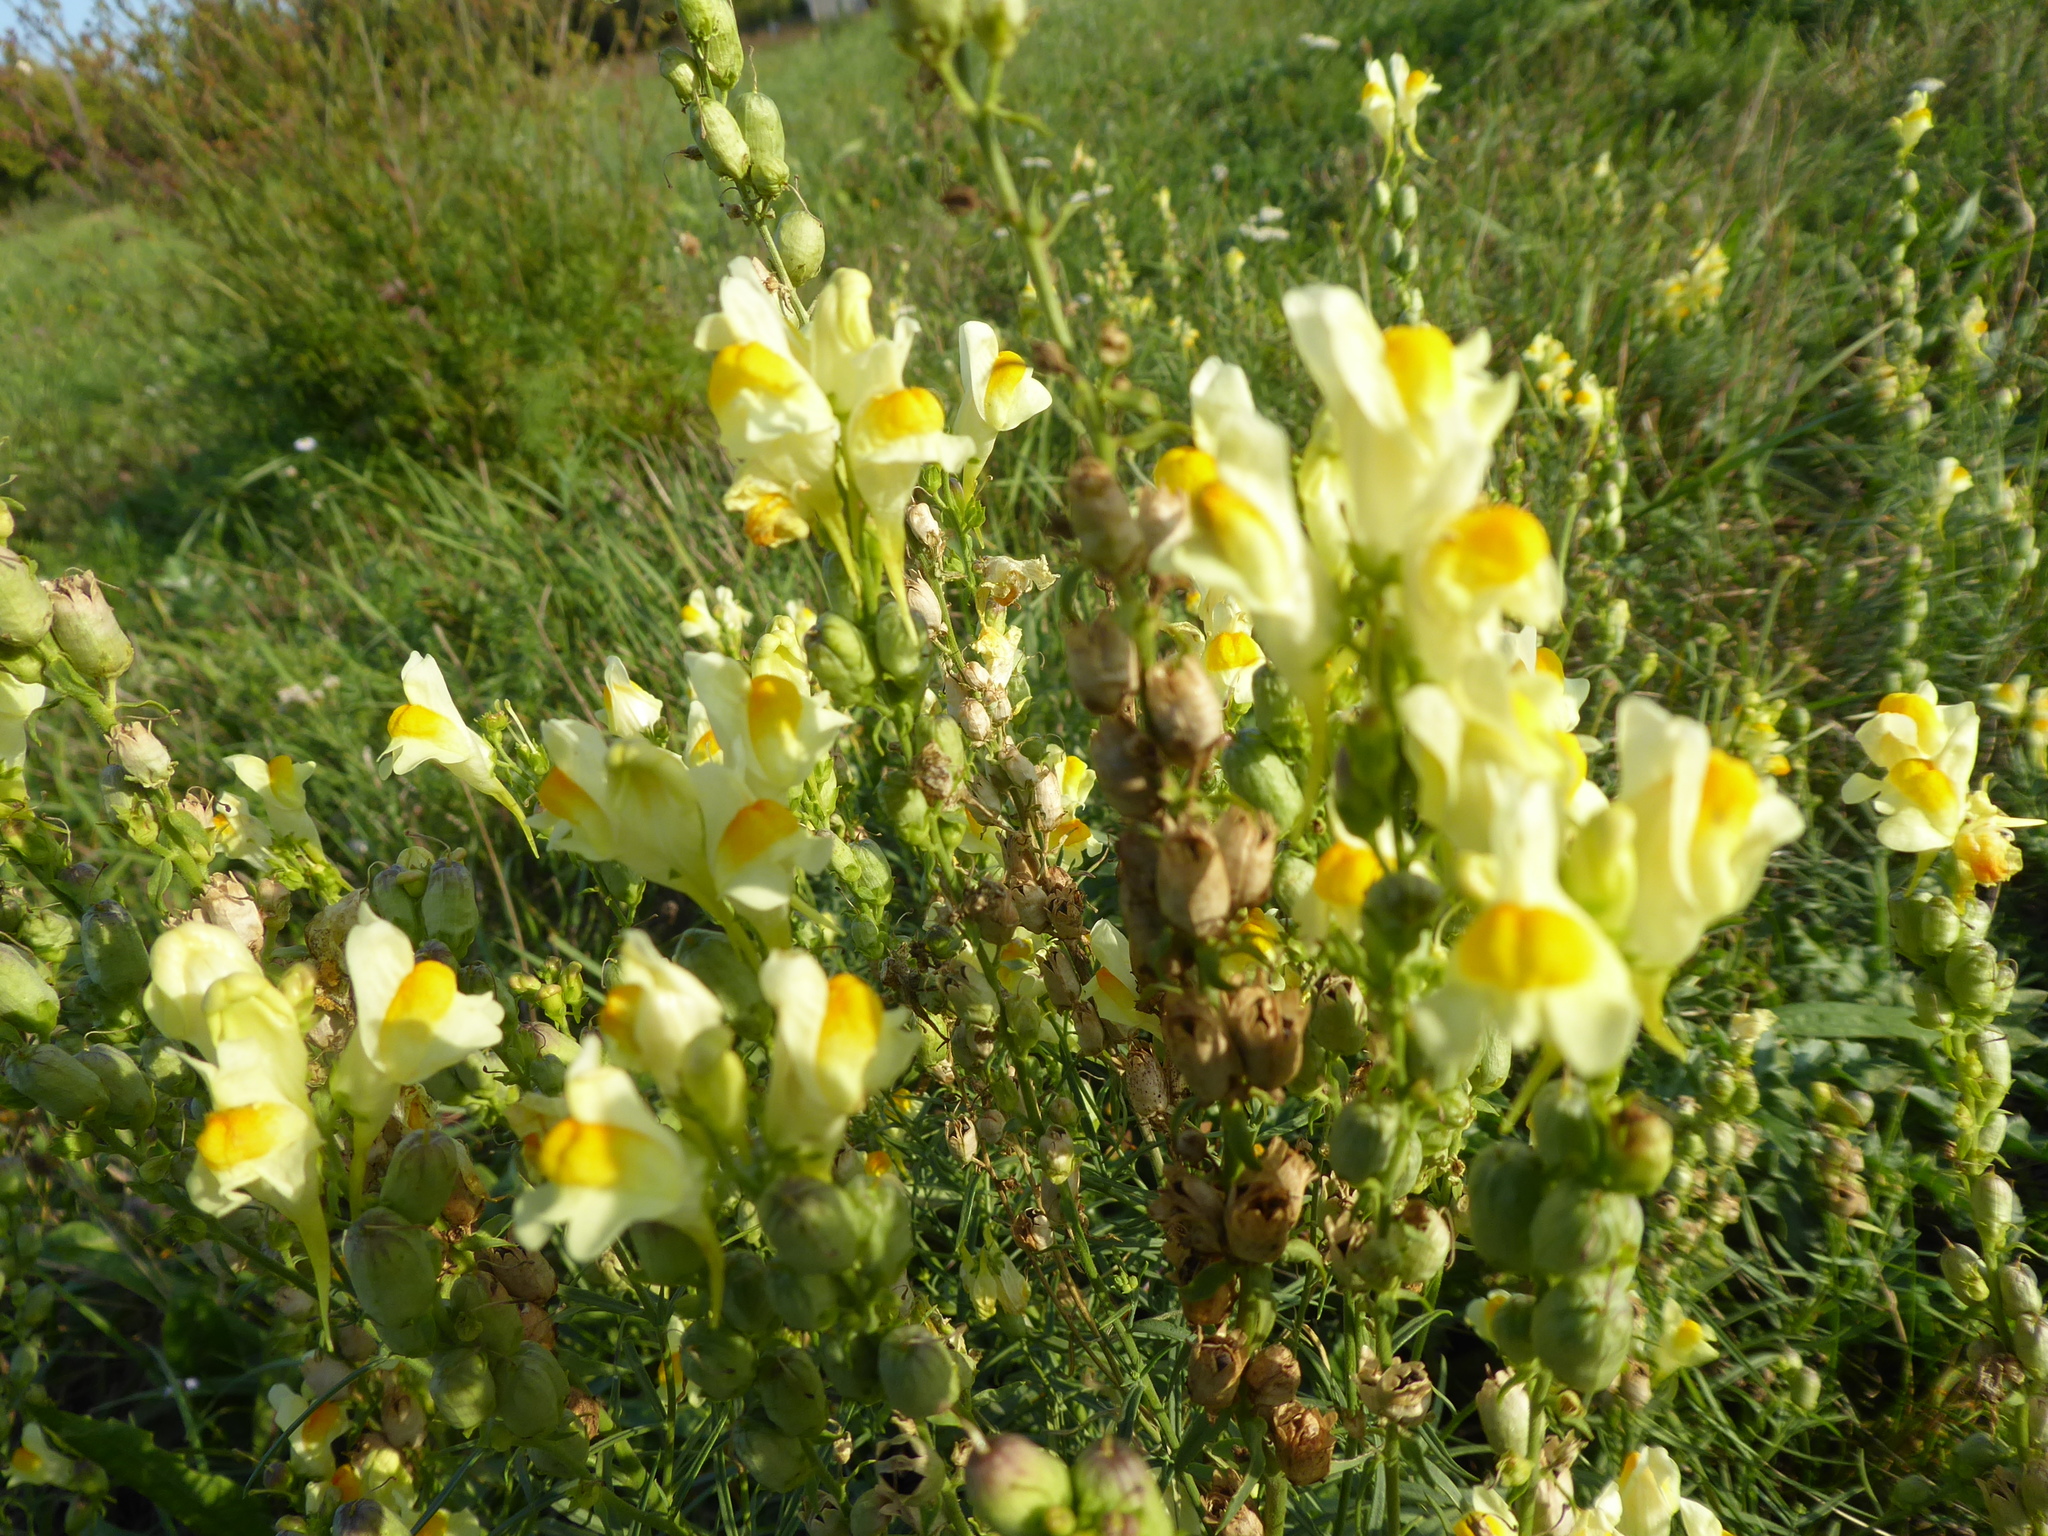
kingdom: Plantae
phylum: Tracheophyta
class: Magnoliopsida
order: Lamiales
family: Plantaginaceae
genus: Linaria
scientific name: Linaria vulgaris
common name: Butter and eggs
